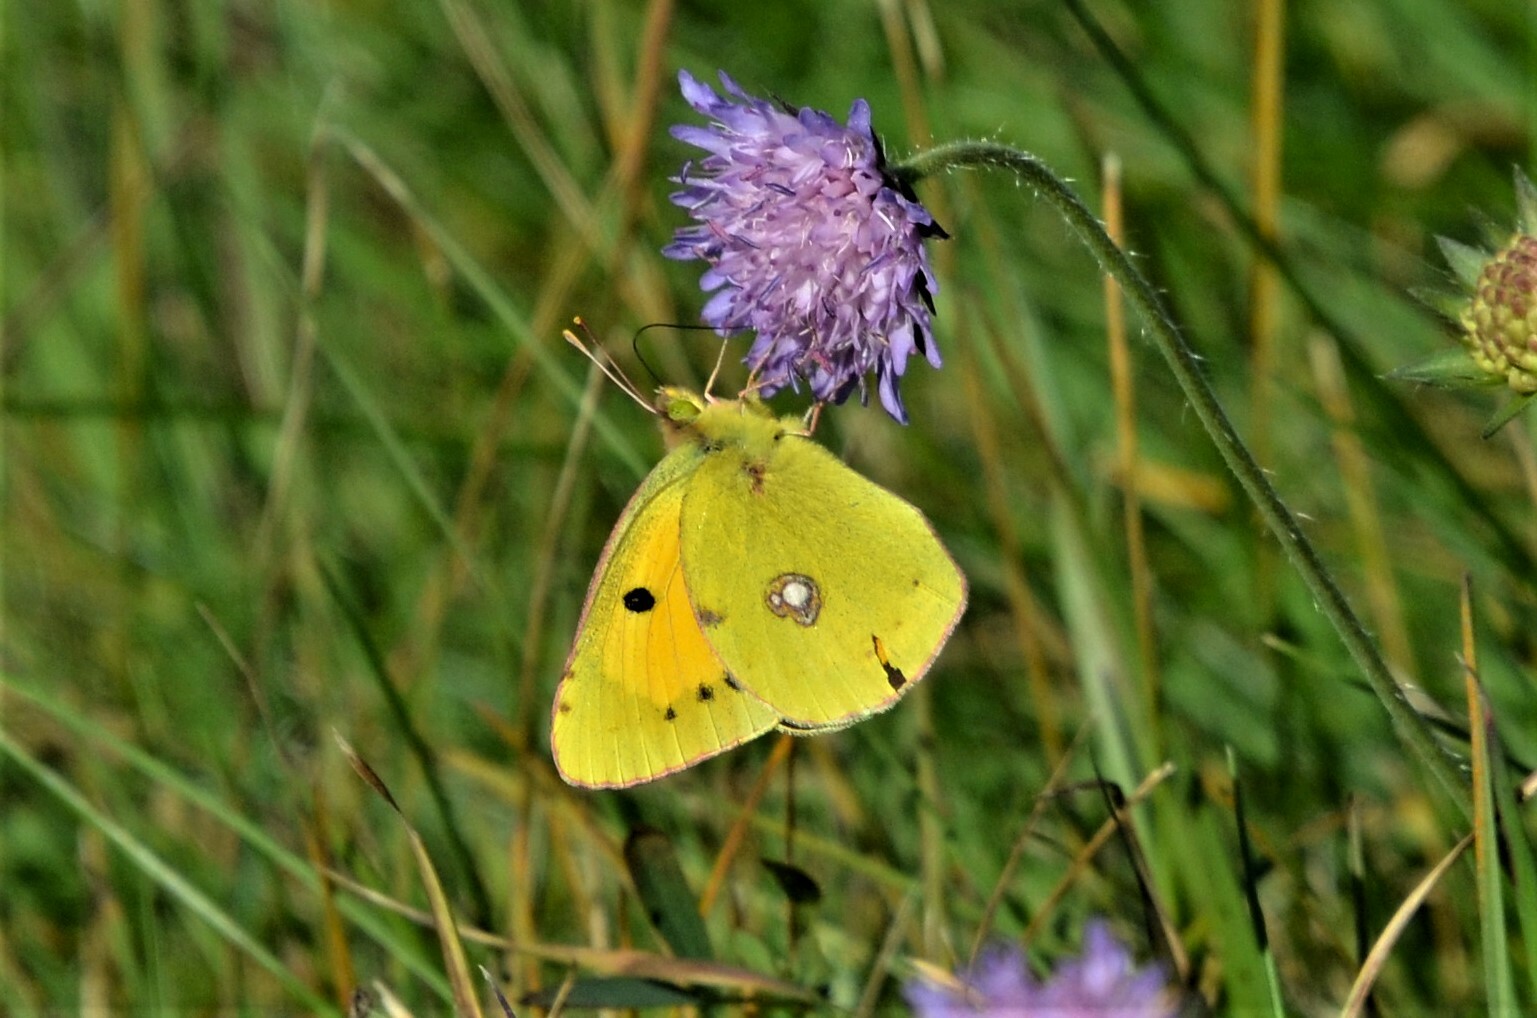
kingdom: Animalia
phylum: Arthropoda
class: Insecta
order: Lepidoptera
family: Pieridae
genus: Colias
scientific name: Colias croceus
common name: Clouded yellow
